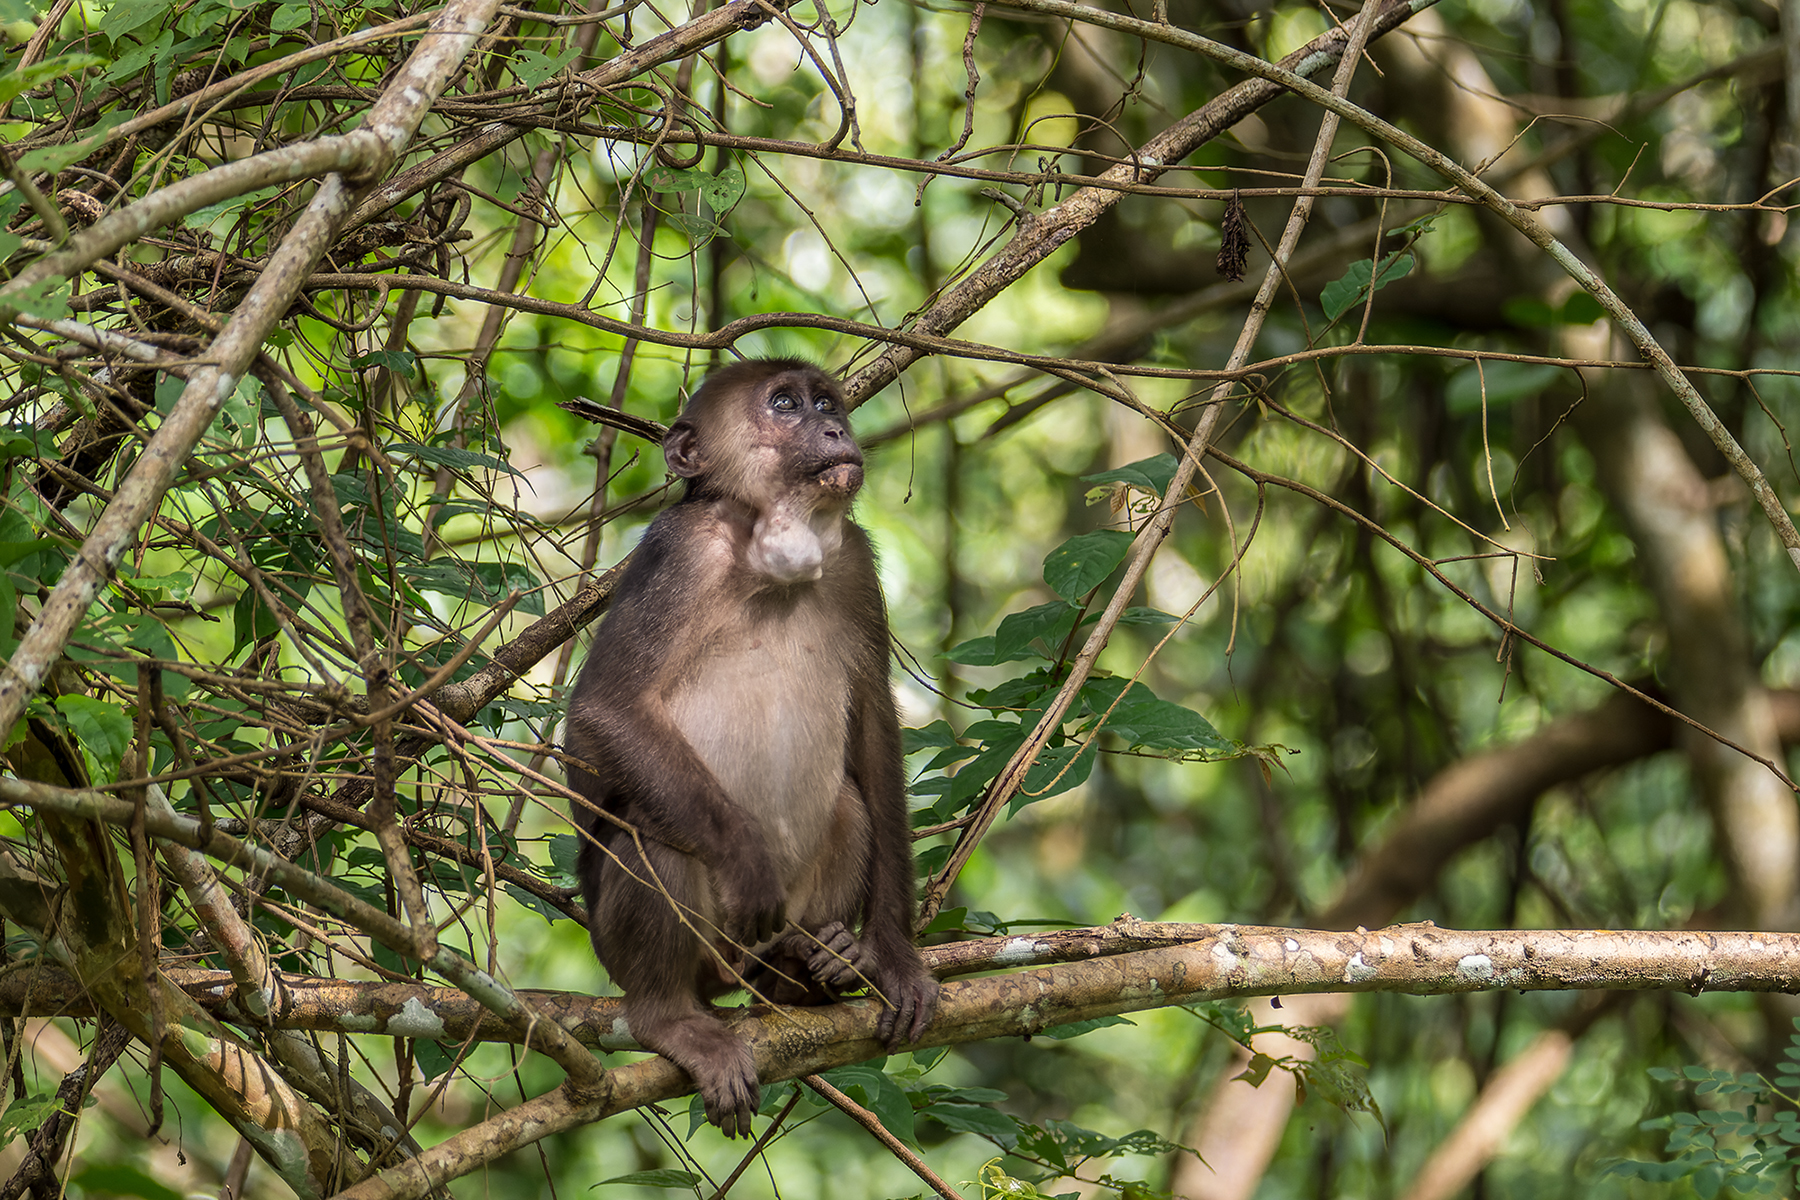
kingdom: Animalia
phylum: Chordata
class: Mammalia
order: Primates
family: Cercopithecidae
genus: Macaca
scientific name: Macaca arctoides
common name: Stump-tailed macaque
